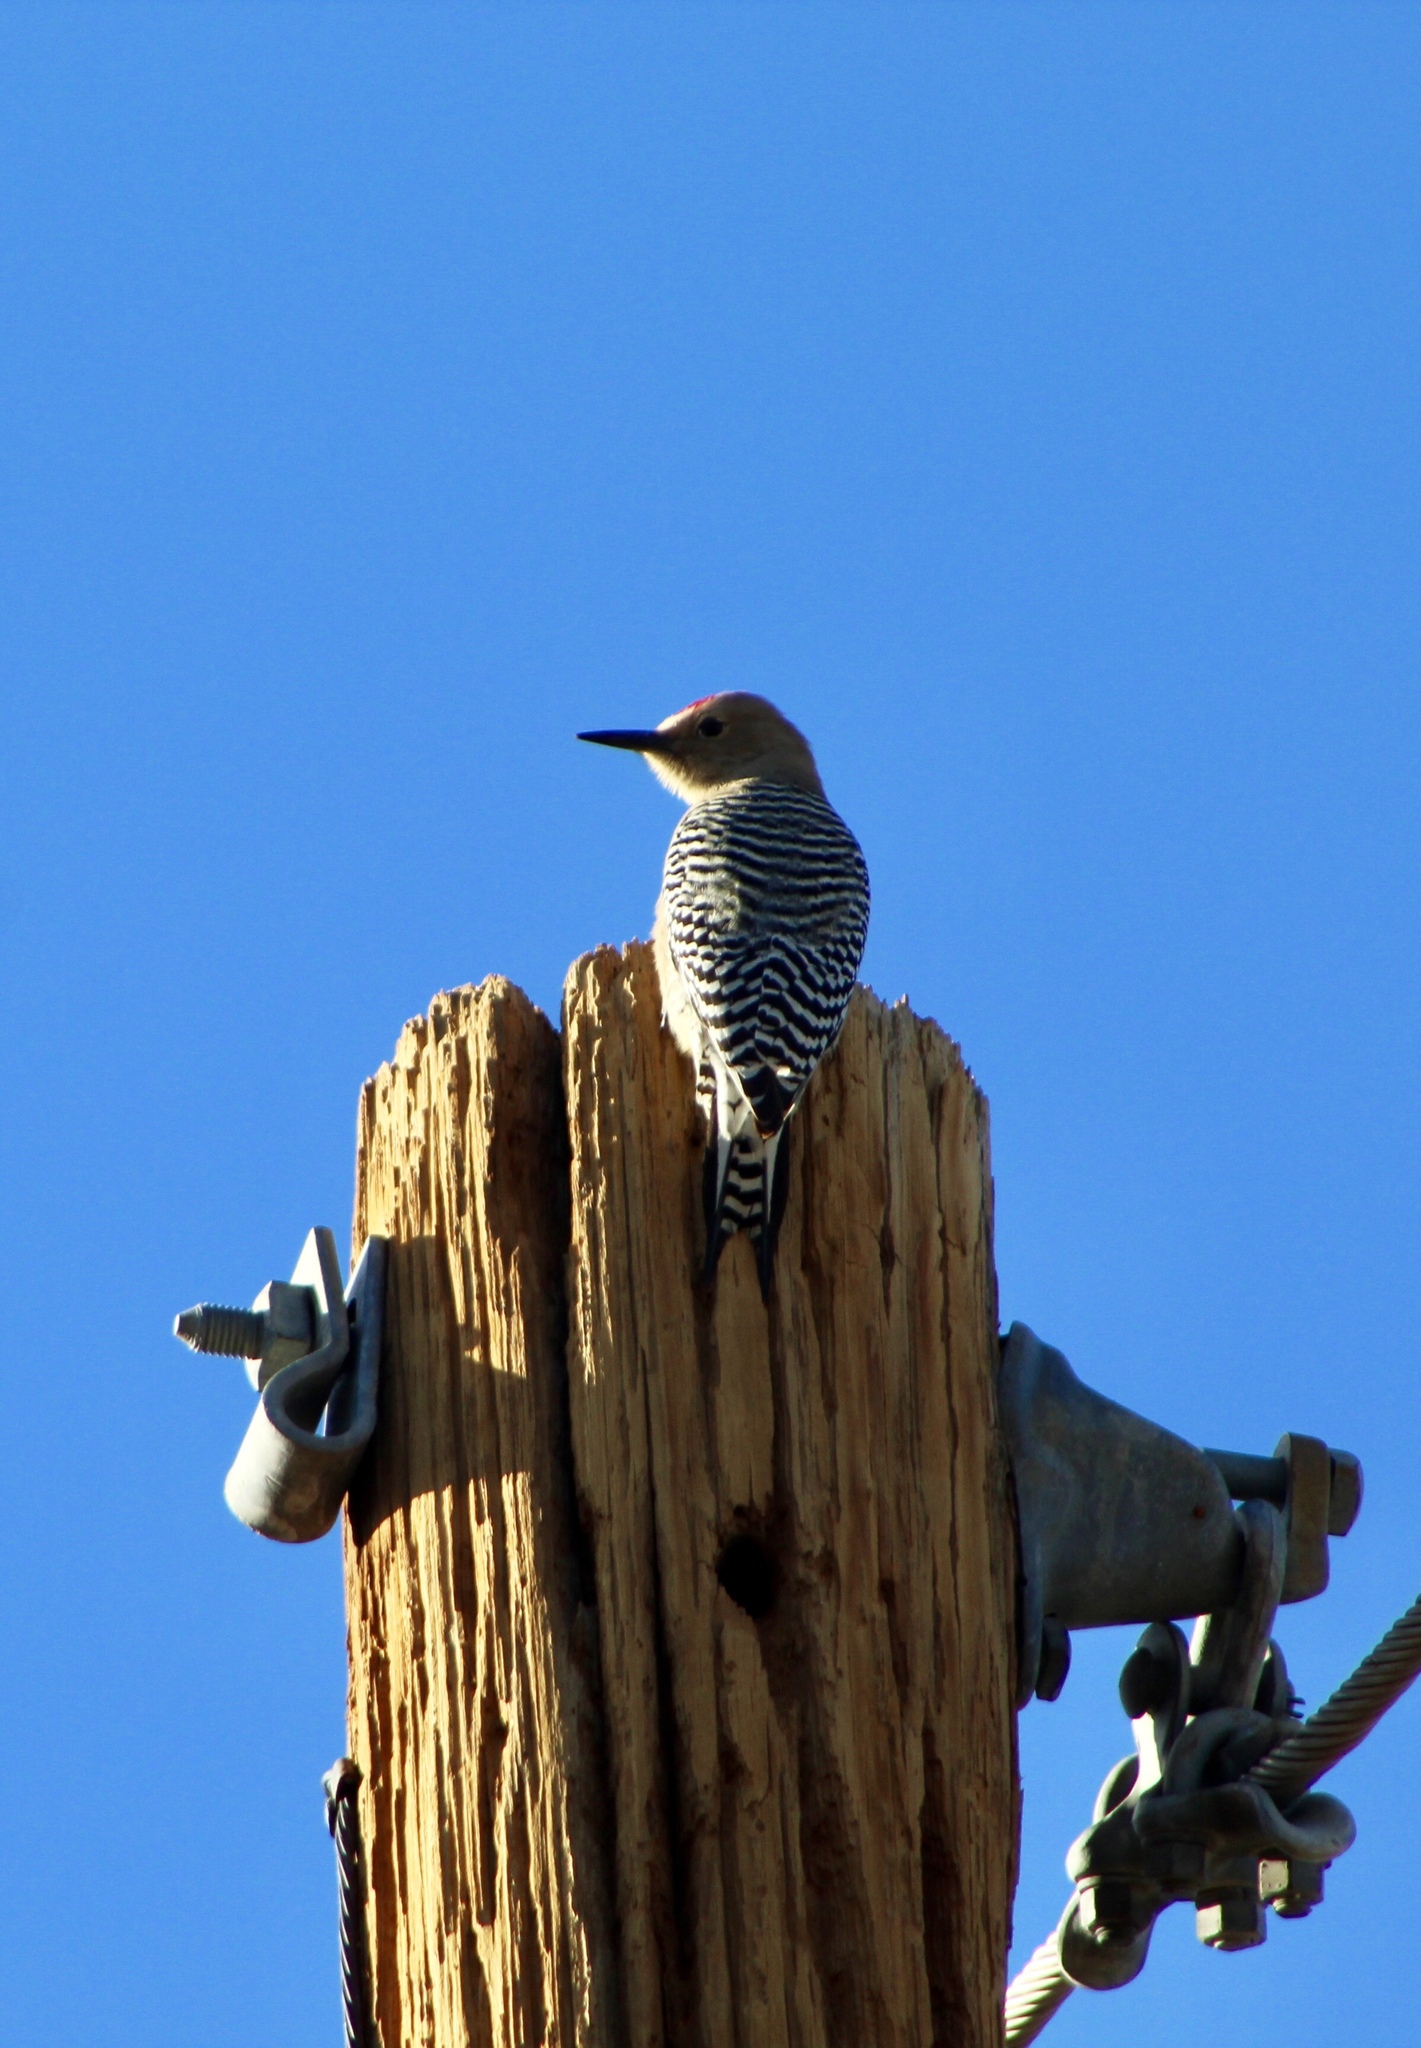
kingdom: Animalia
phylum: Chordata
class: Aves
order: Piciformes
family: Picidae
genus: Melanerpes
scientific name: Melanerpes uropygialis
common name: Gila woodpecker
